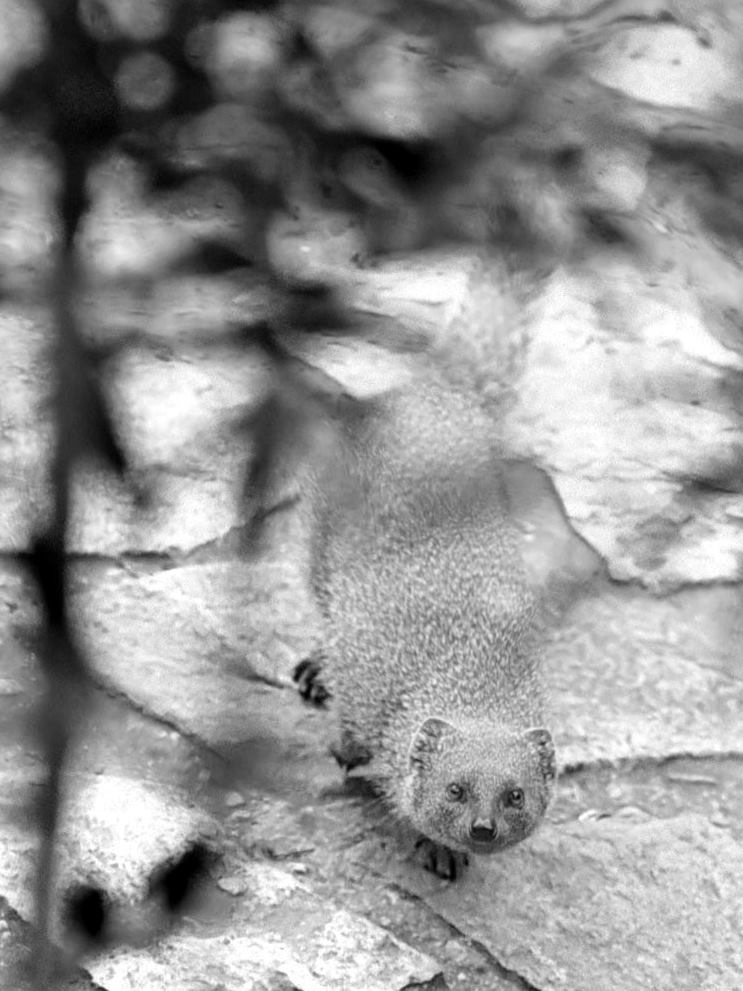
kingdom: Animalia
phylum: Chordata
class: Mammalia
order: Carnivora
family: Herpestidae
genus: Galerella
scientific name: Galerella pulverulenta
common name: Cape gray mongoose
